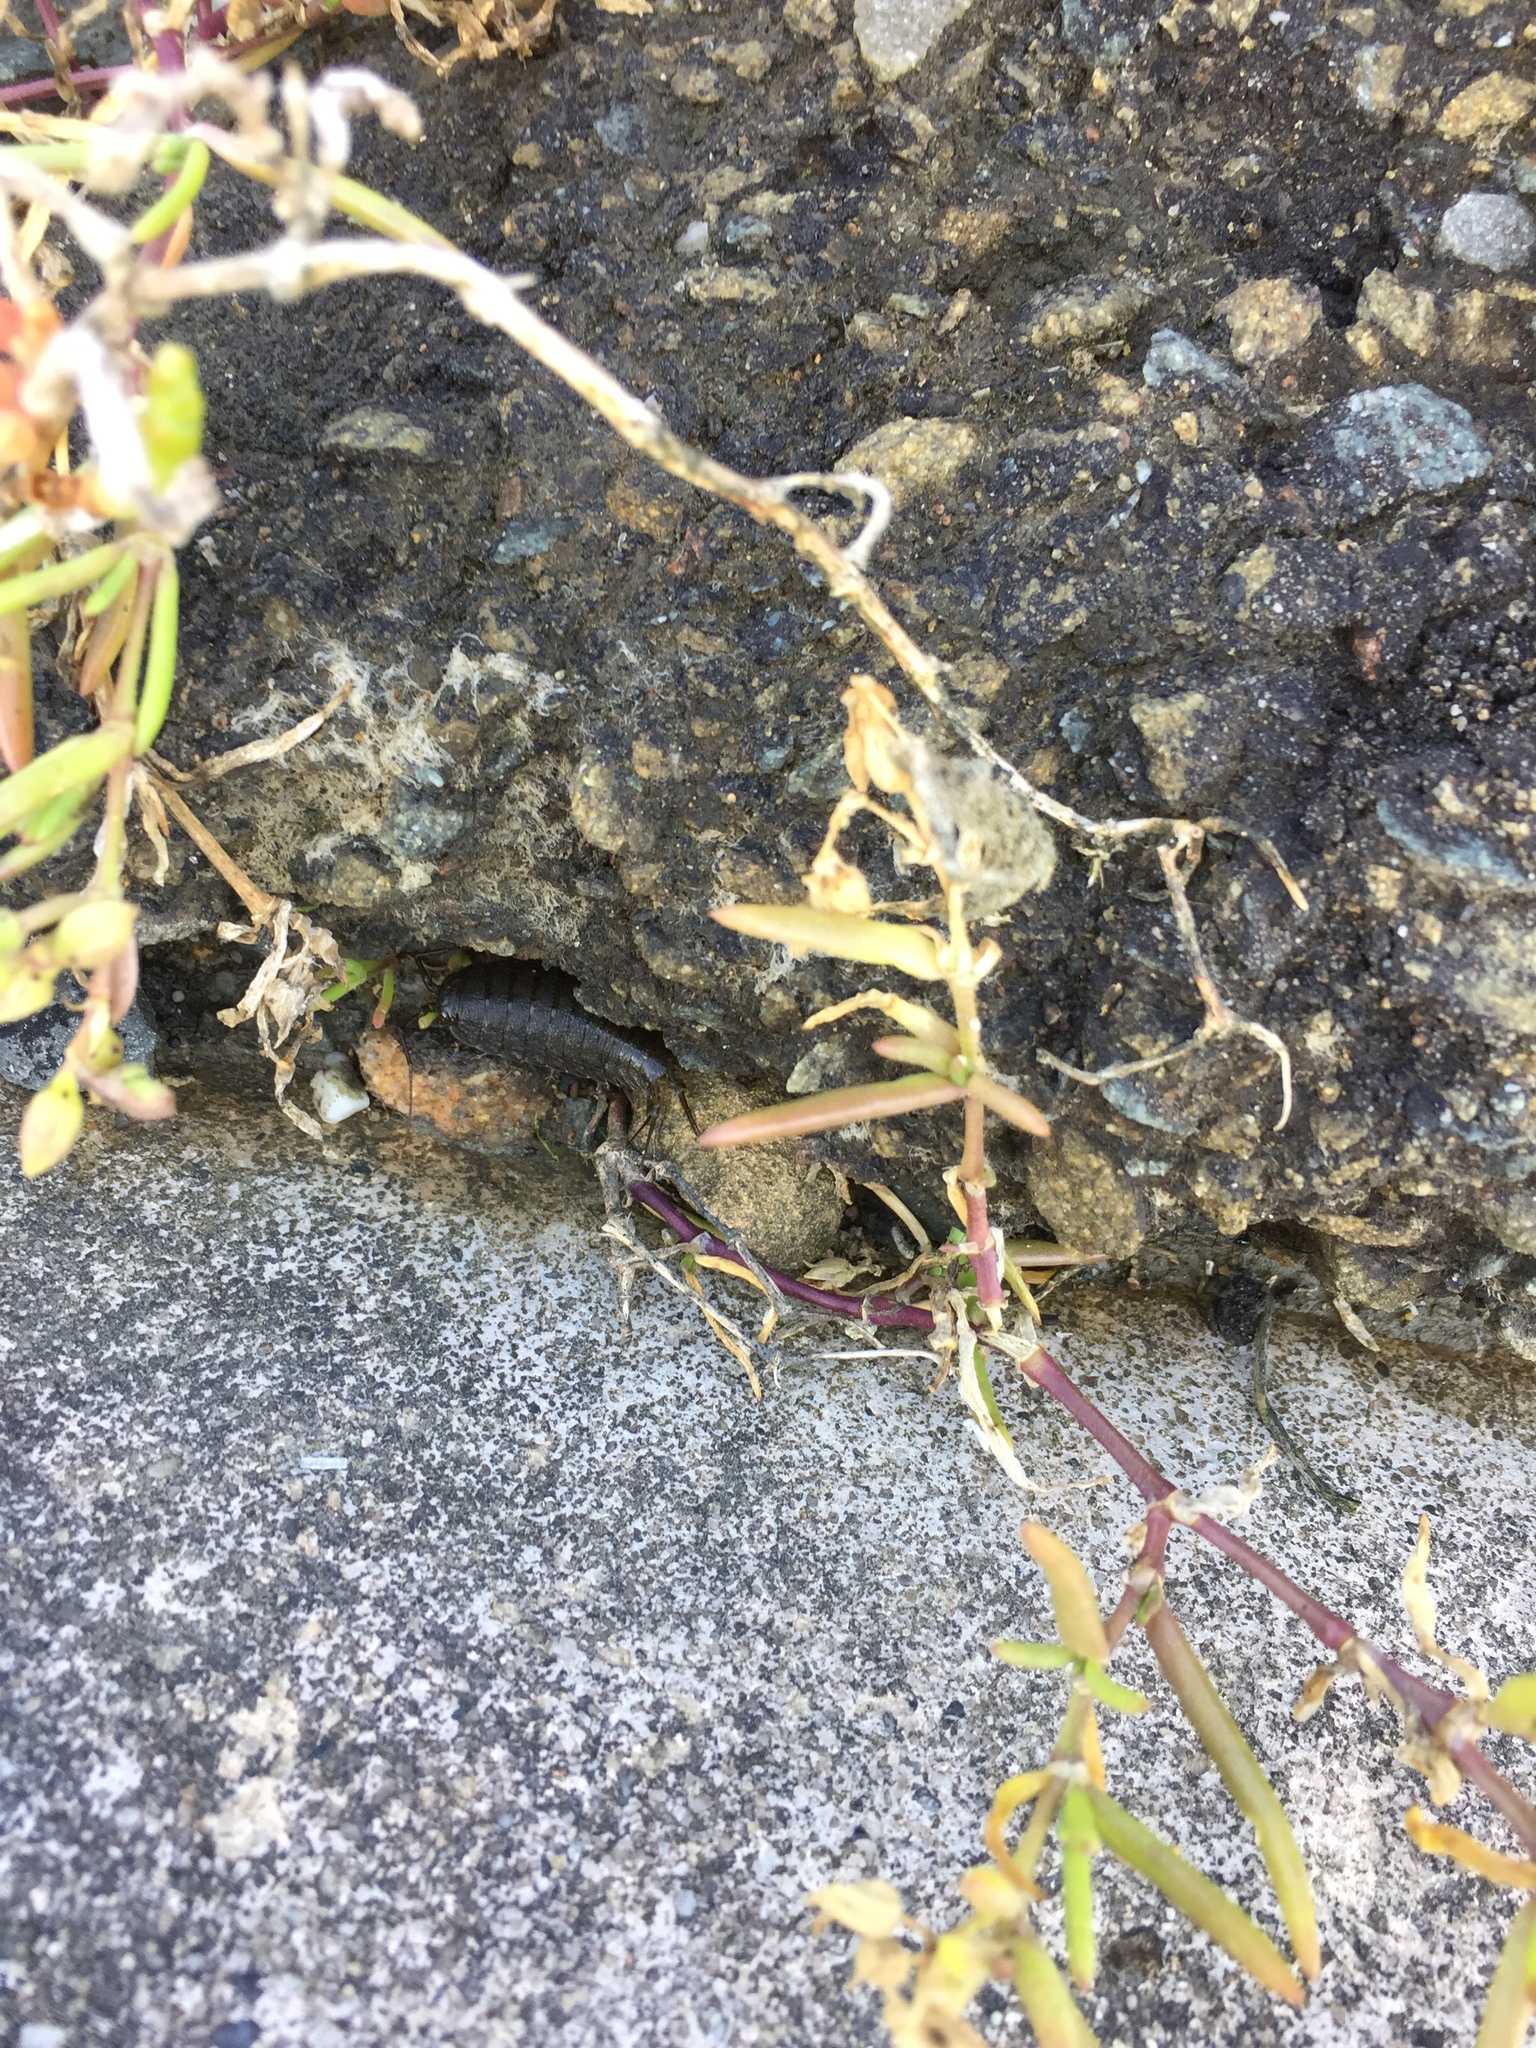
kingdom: Animalia
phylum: Arthropoda
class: Malacostraca
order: Isopoda
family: Ligiidae
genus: Ligia
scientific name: Ligia occidentalis
